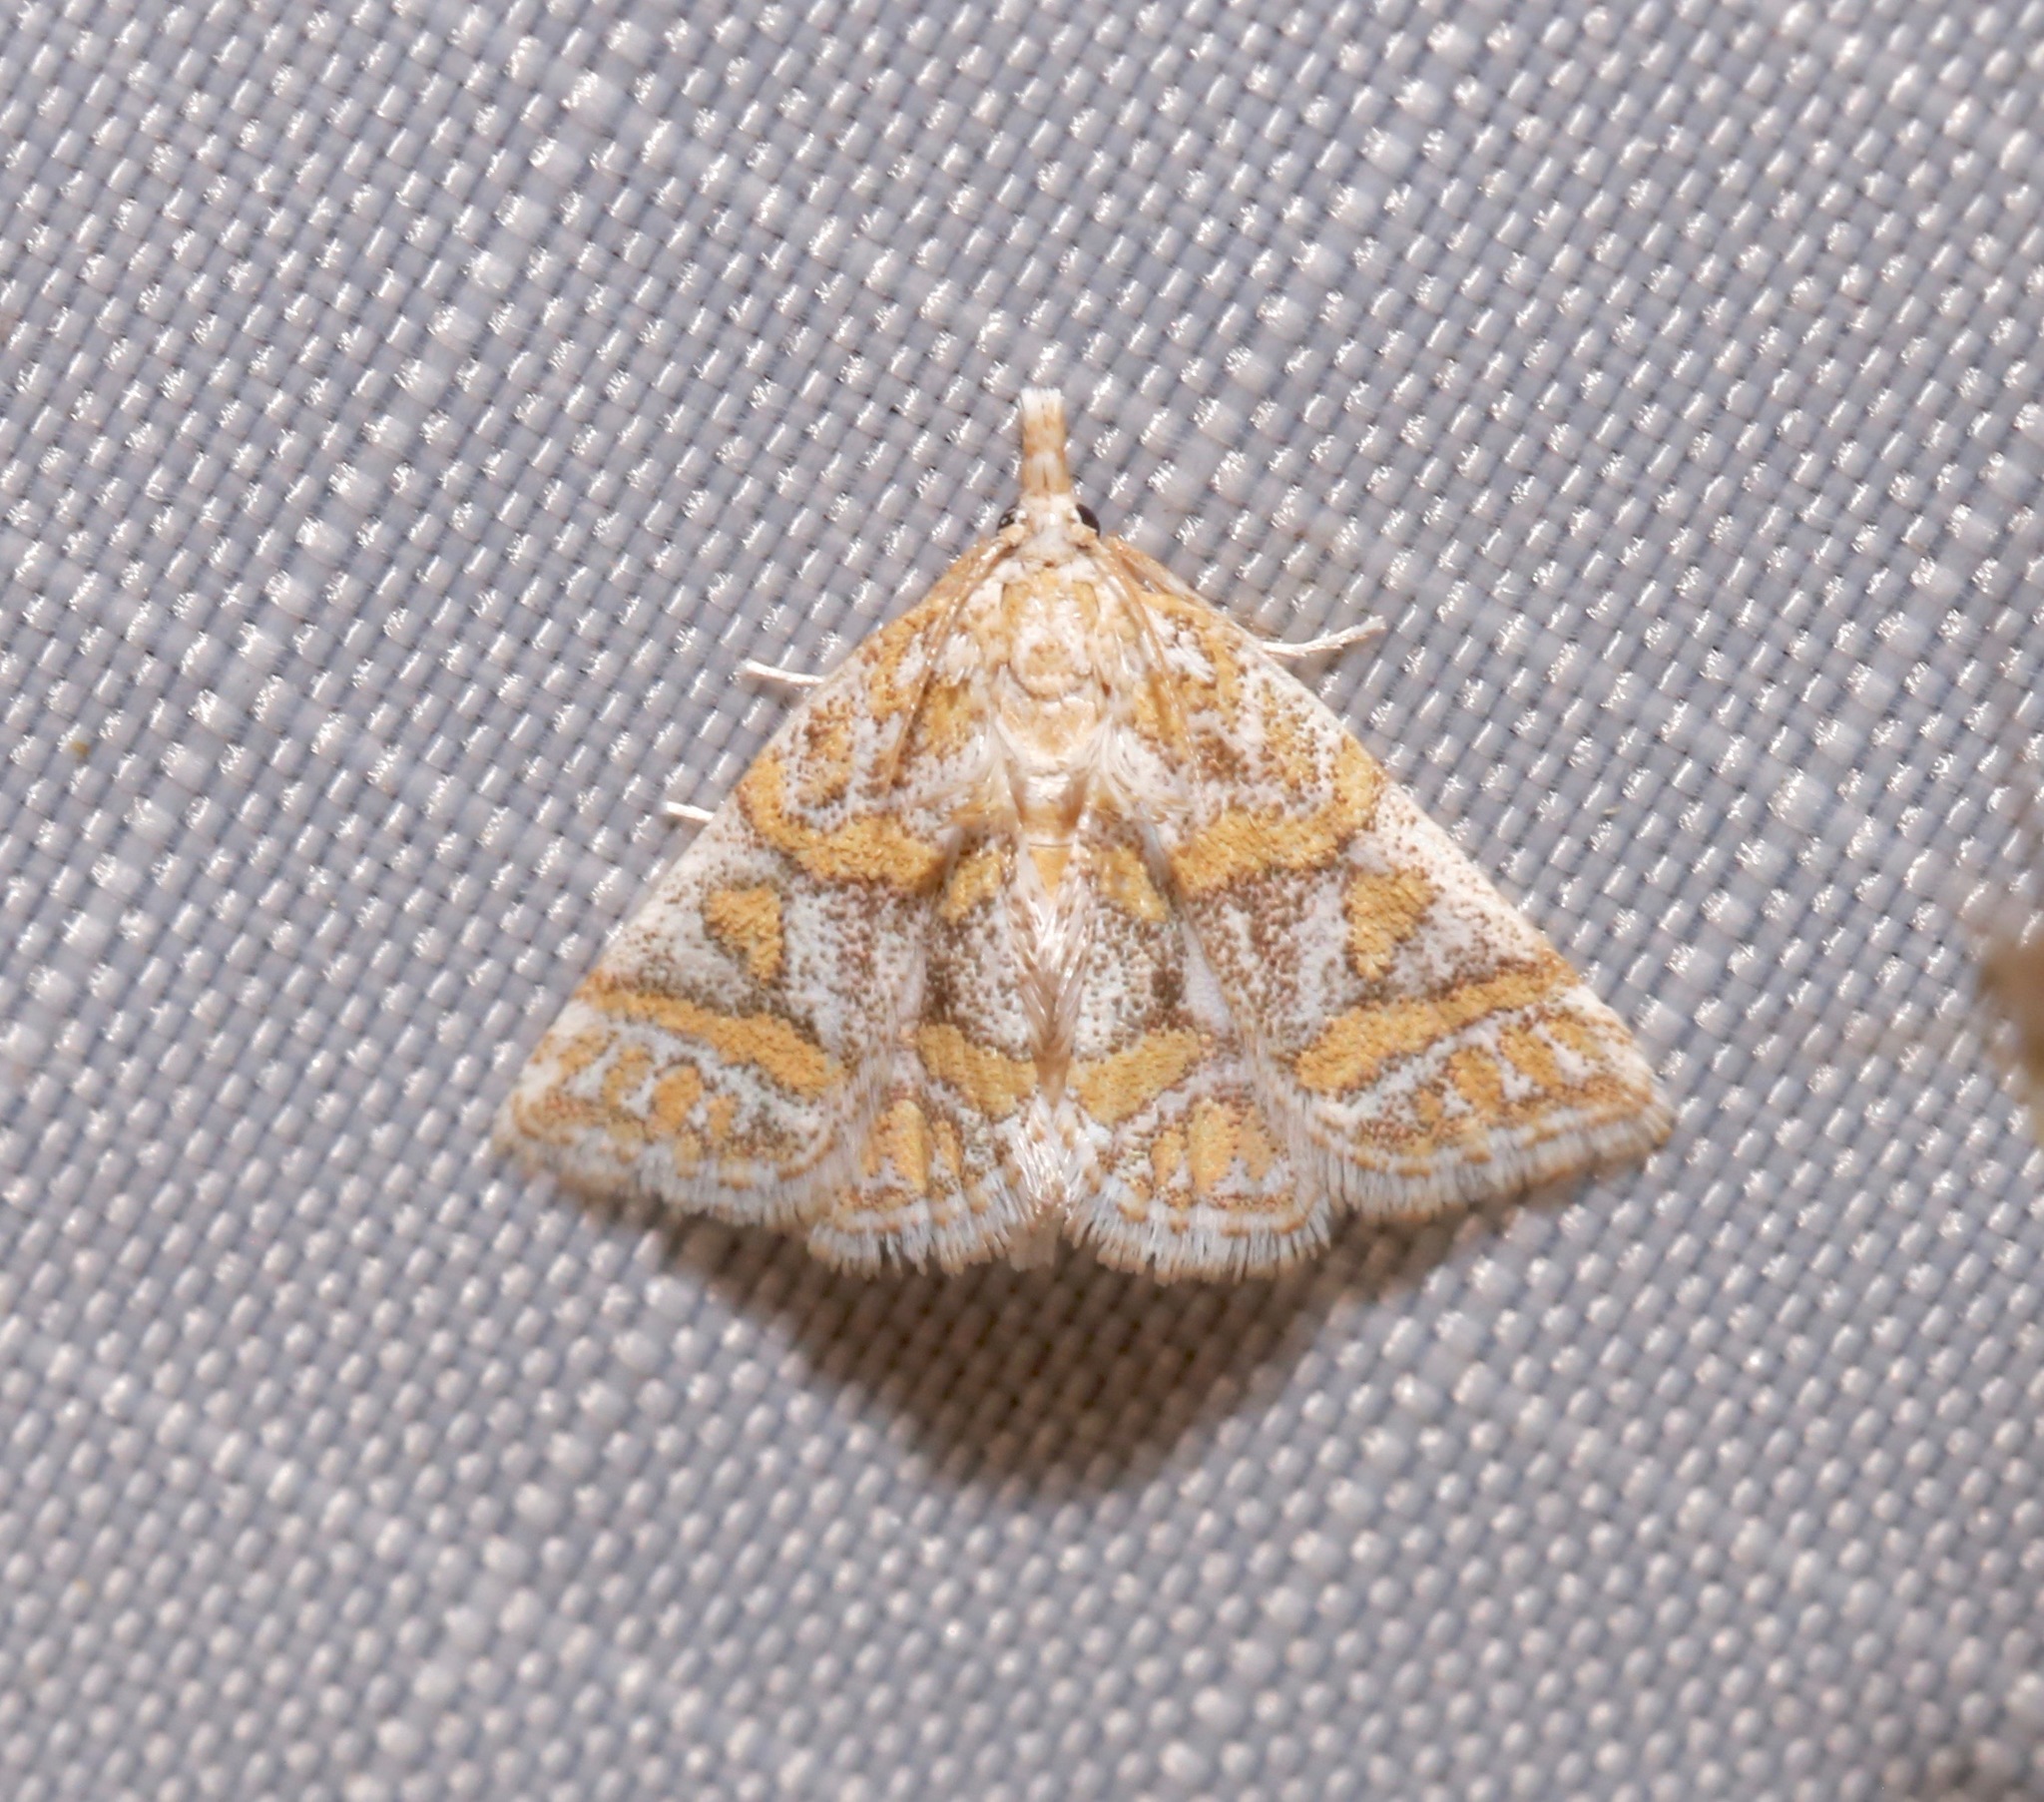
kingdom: Animalia
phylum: Arthropoda
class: Insecta
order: Lepidoptera
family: Crambidae
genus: Leptosteges
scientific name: Leptosteges flavifascialis
